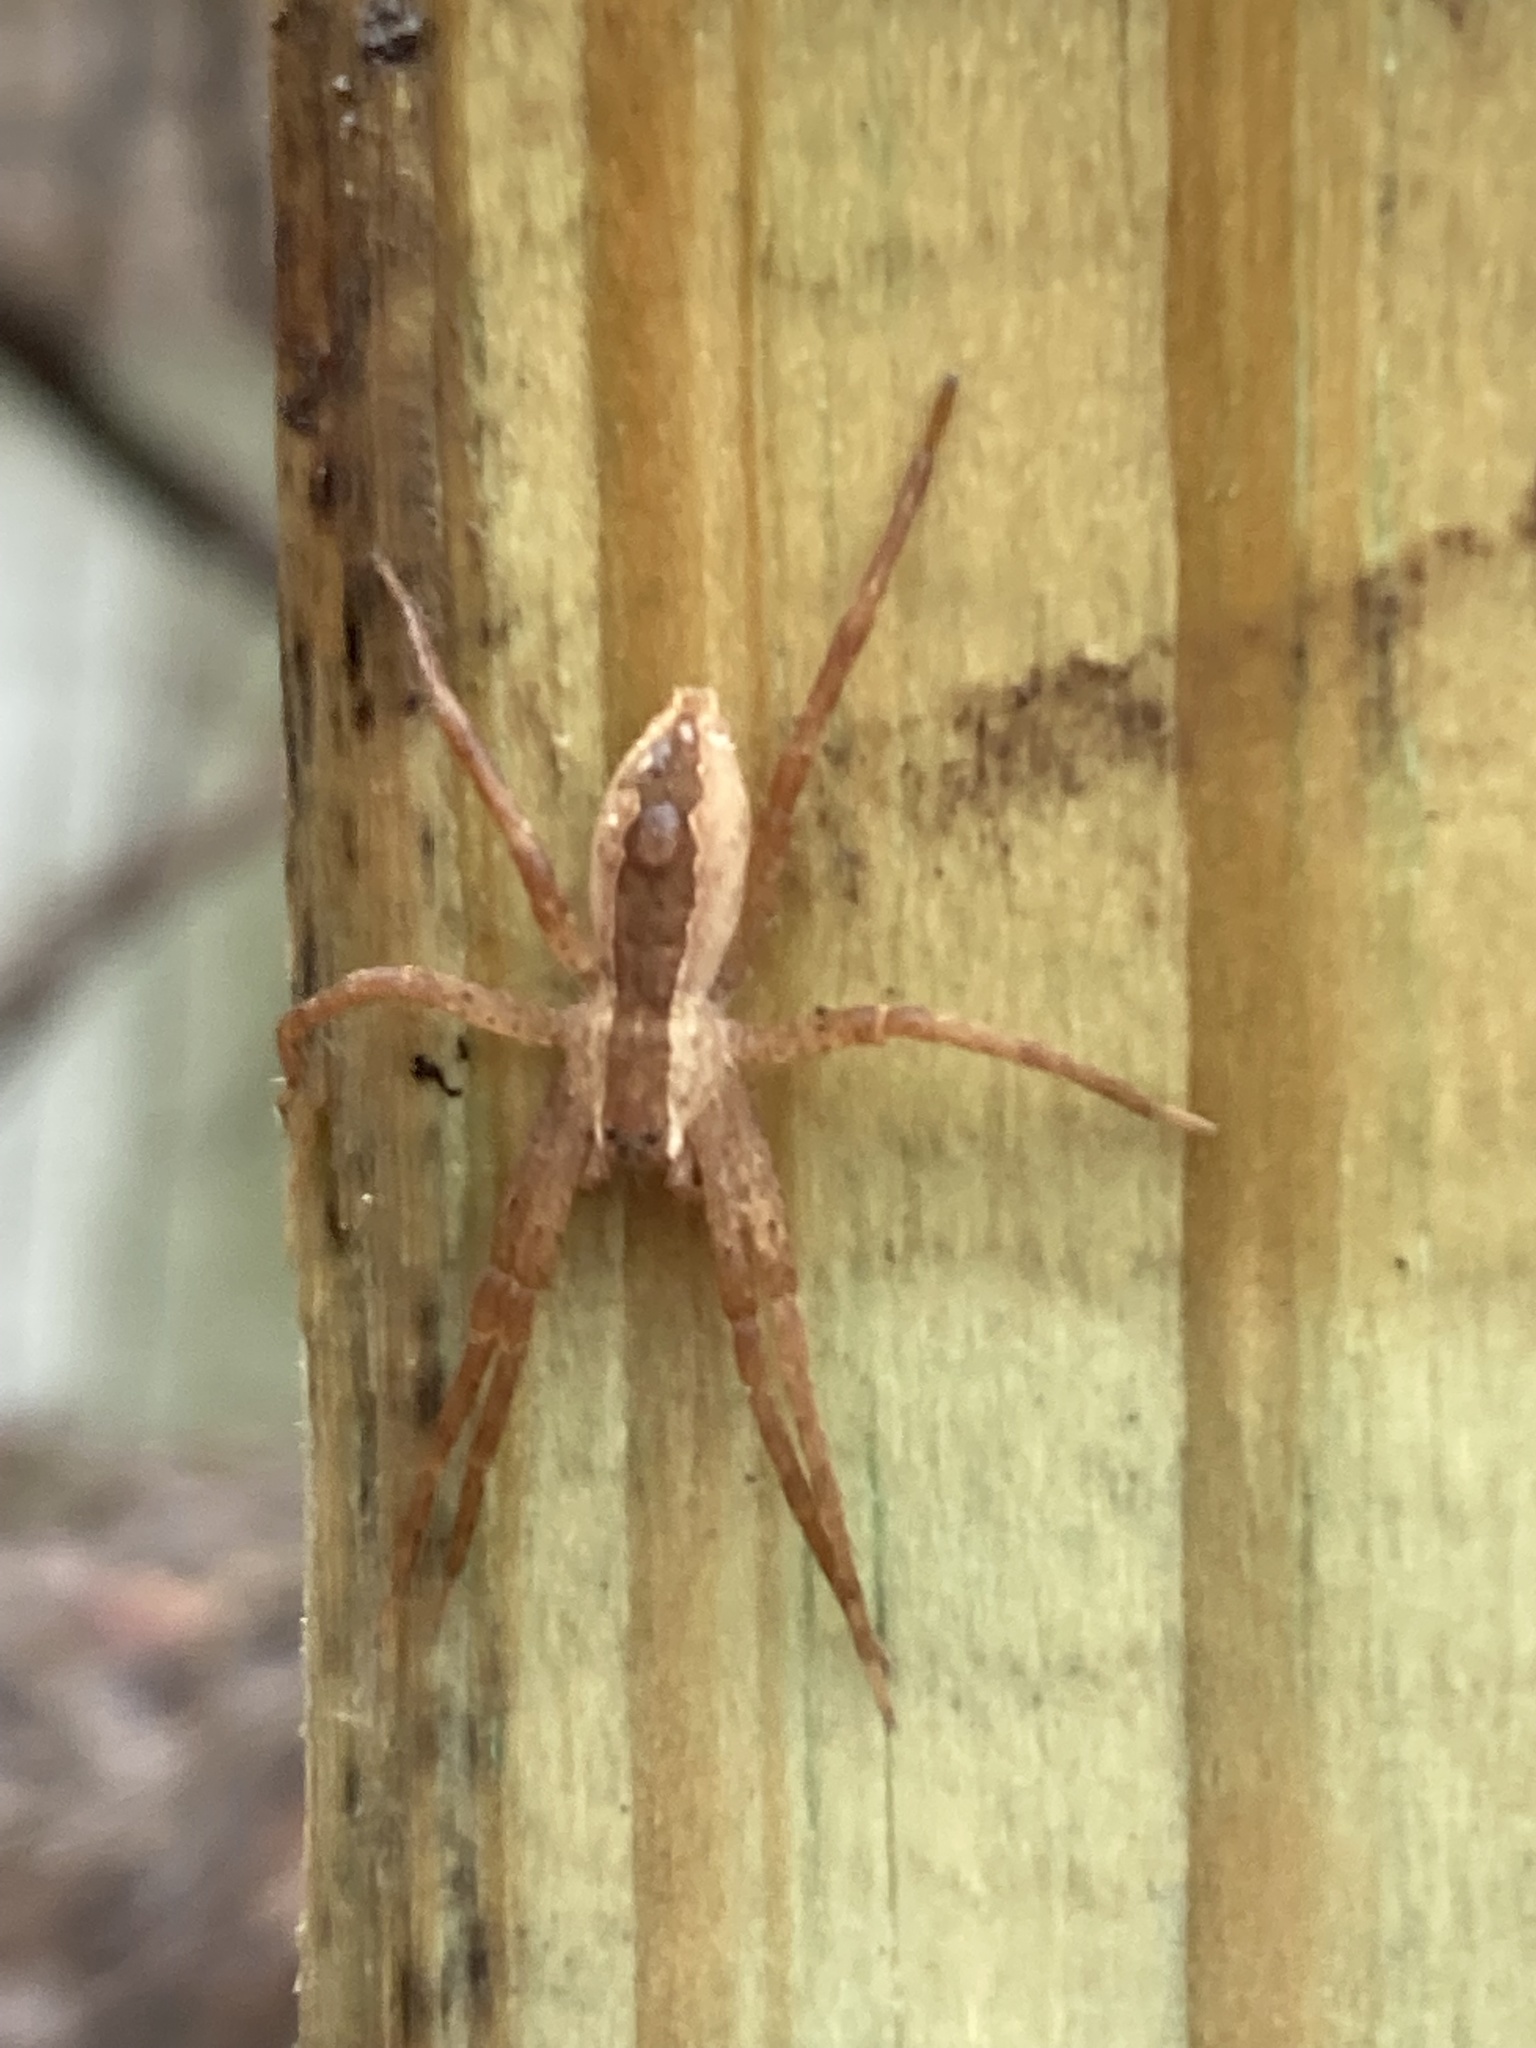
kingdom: Animalia
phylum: Arthropoda
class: Arachnida
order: Araneae
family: Pisauridae
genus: Pisaurina
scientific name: Pisaurina mira
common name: American nursery web spider
